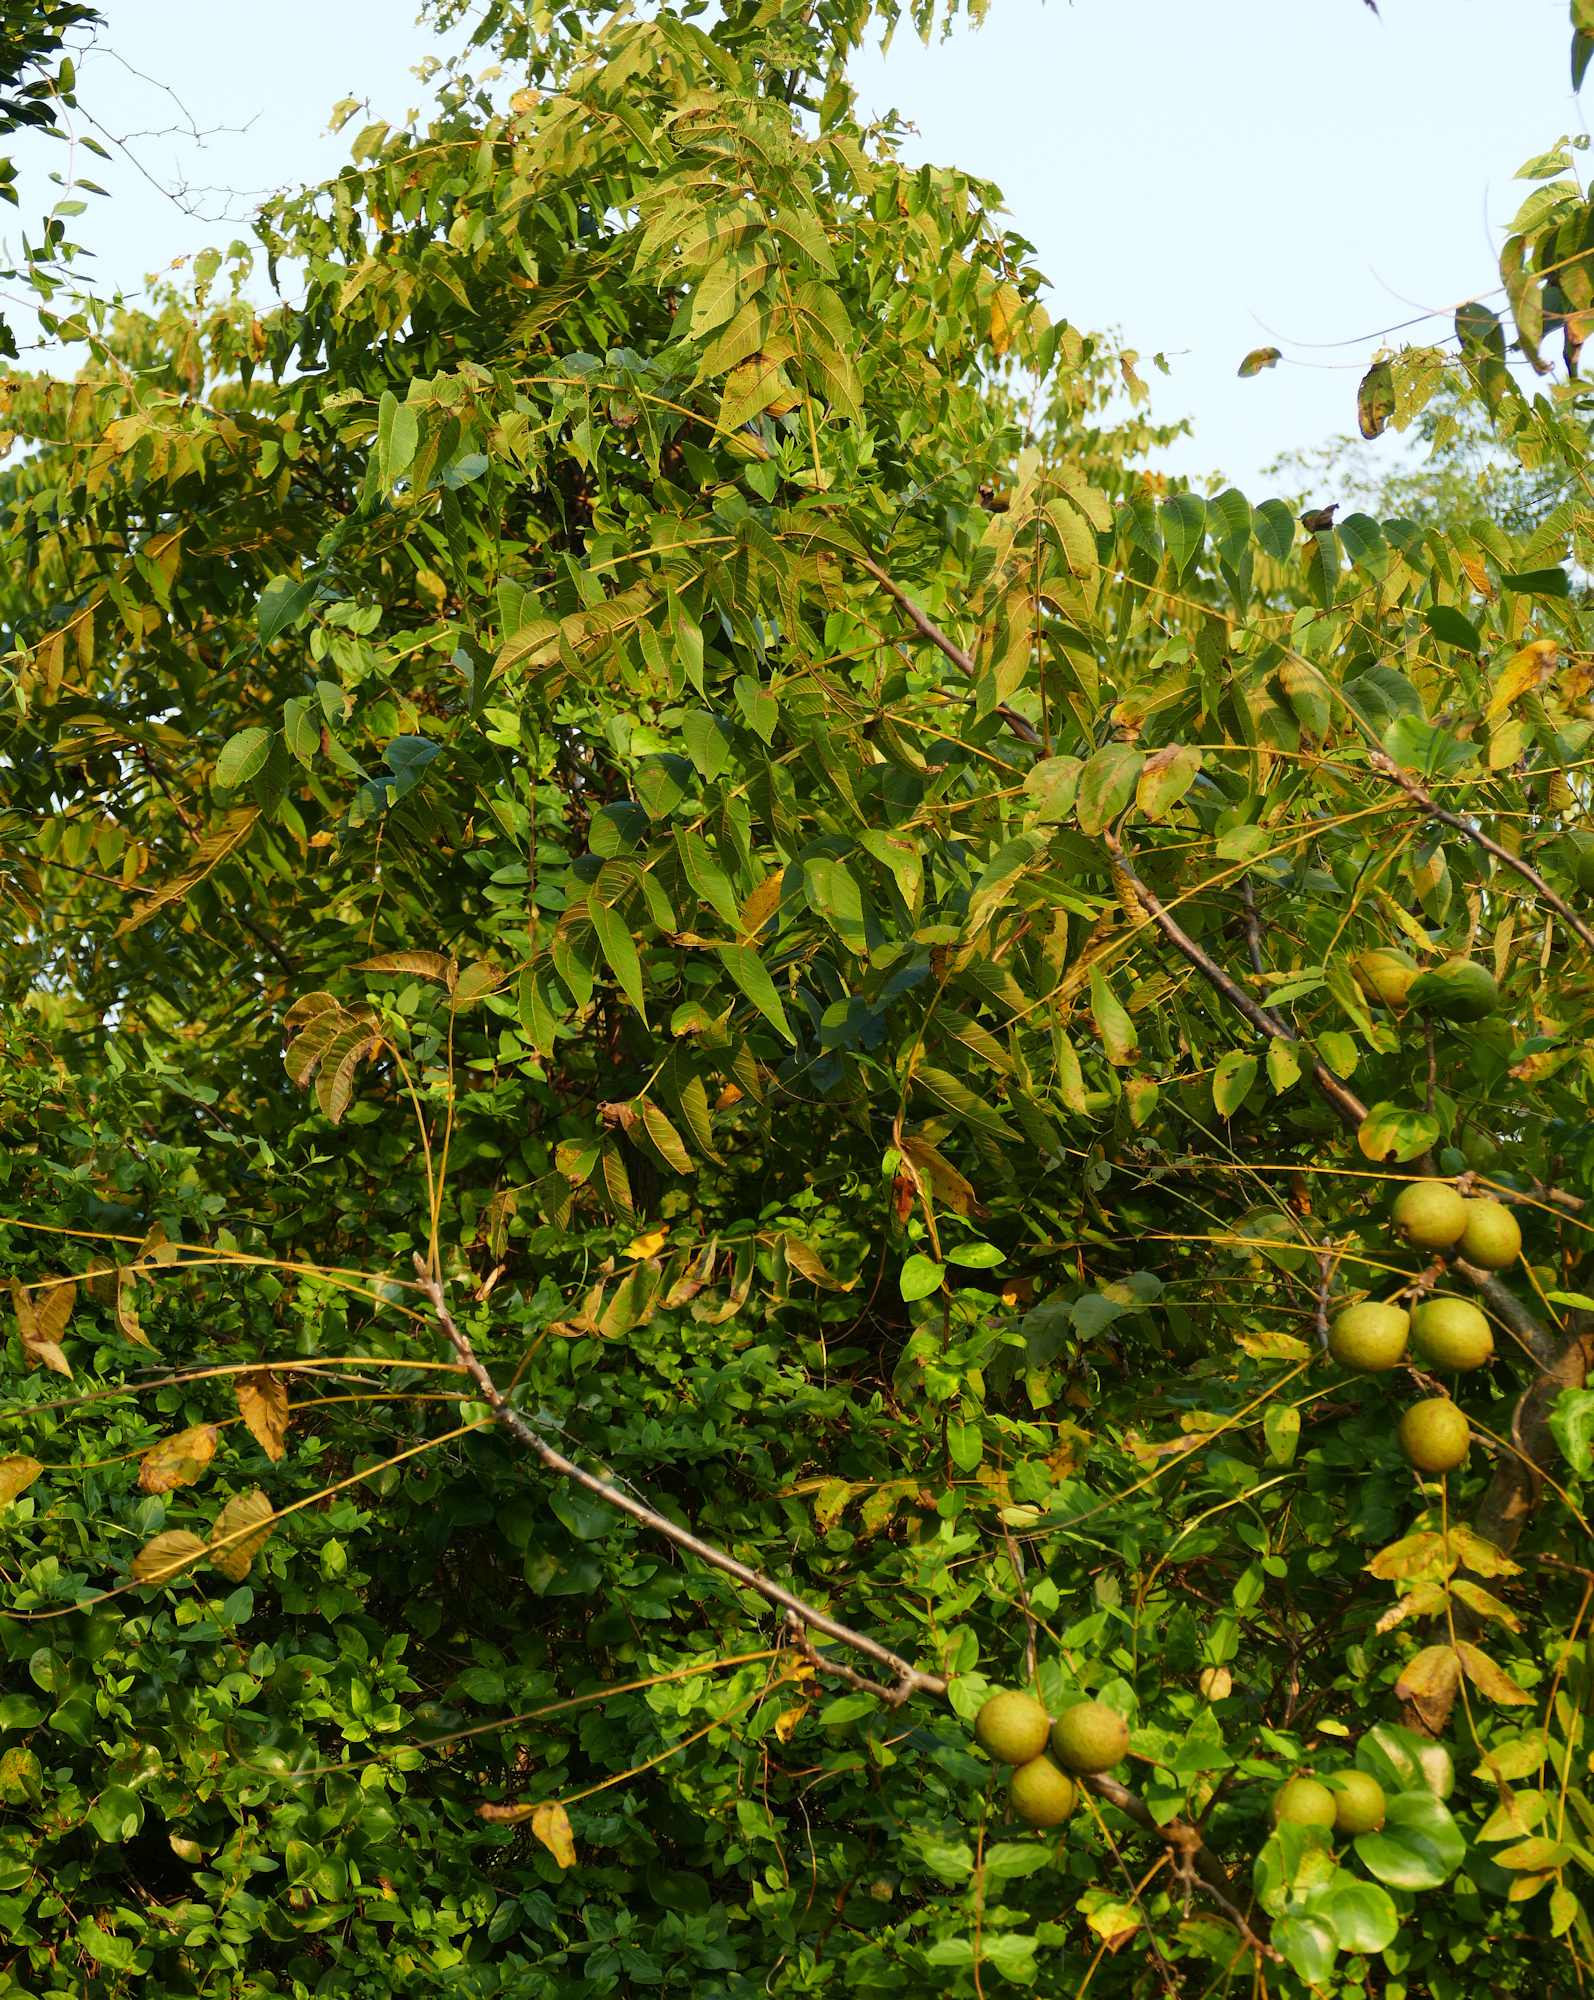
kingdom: Plantae
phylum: Tracheophyta
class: Magnoliopsida
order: Fagales
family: Juglandaceae
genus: Juglans
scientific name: Juglans nigra
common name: Black walnut
